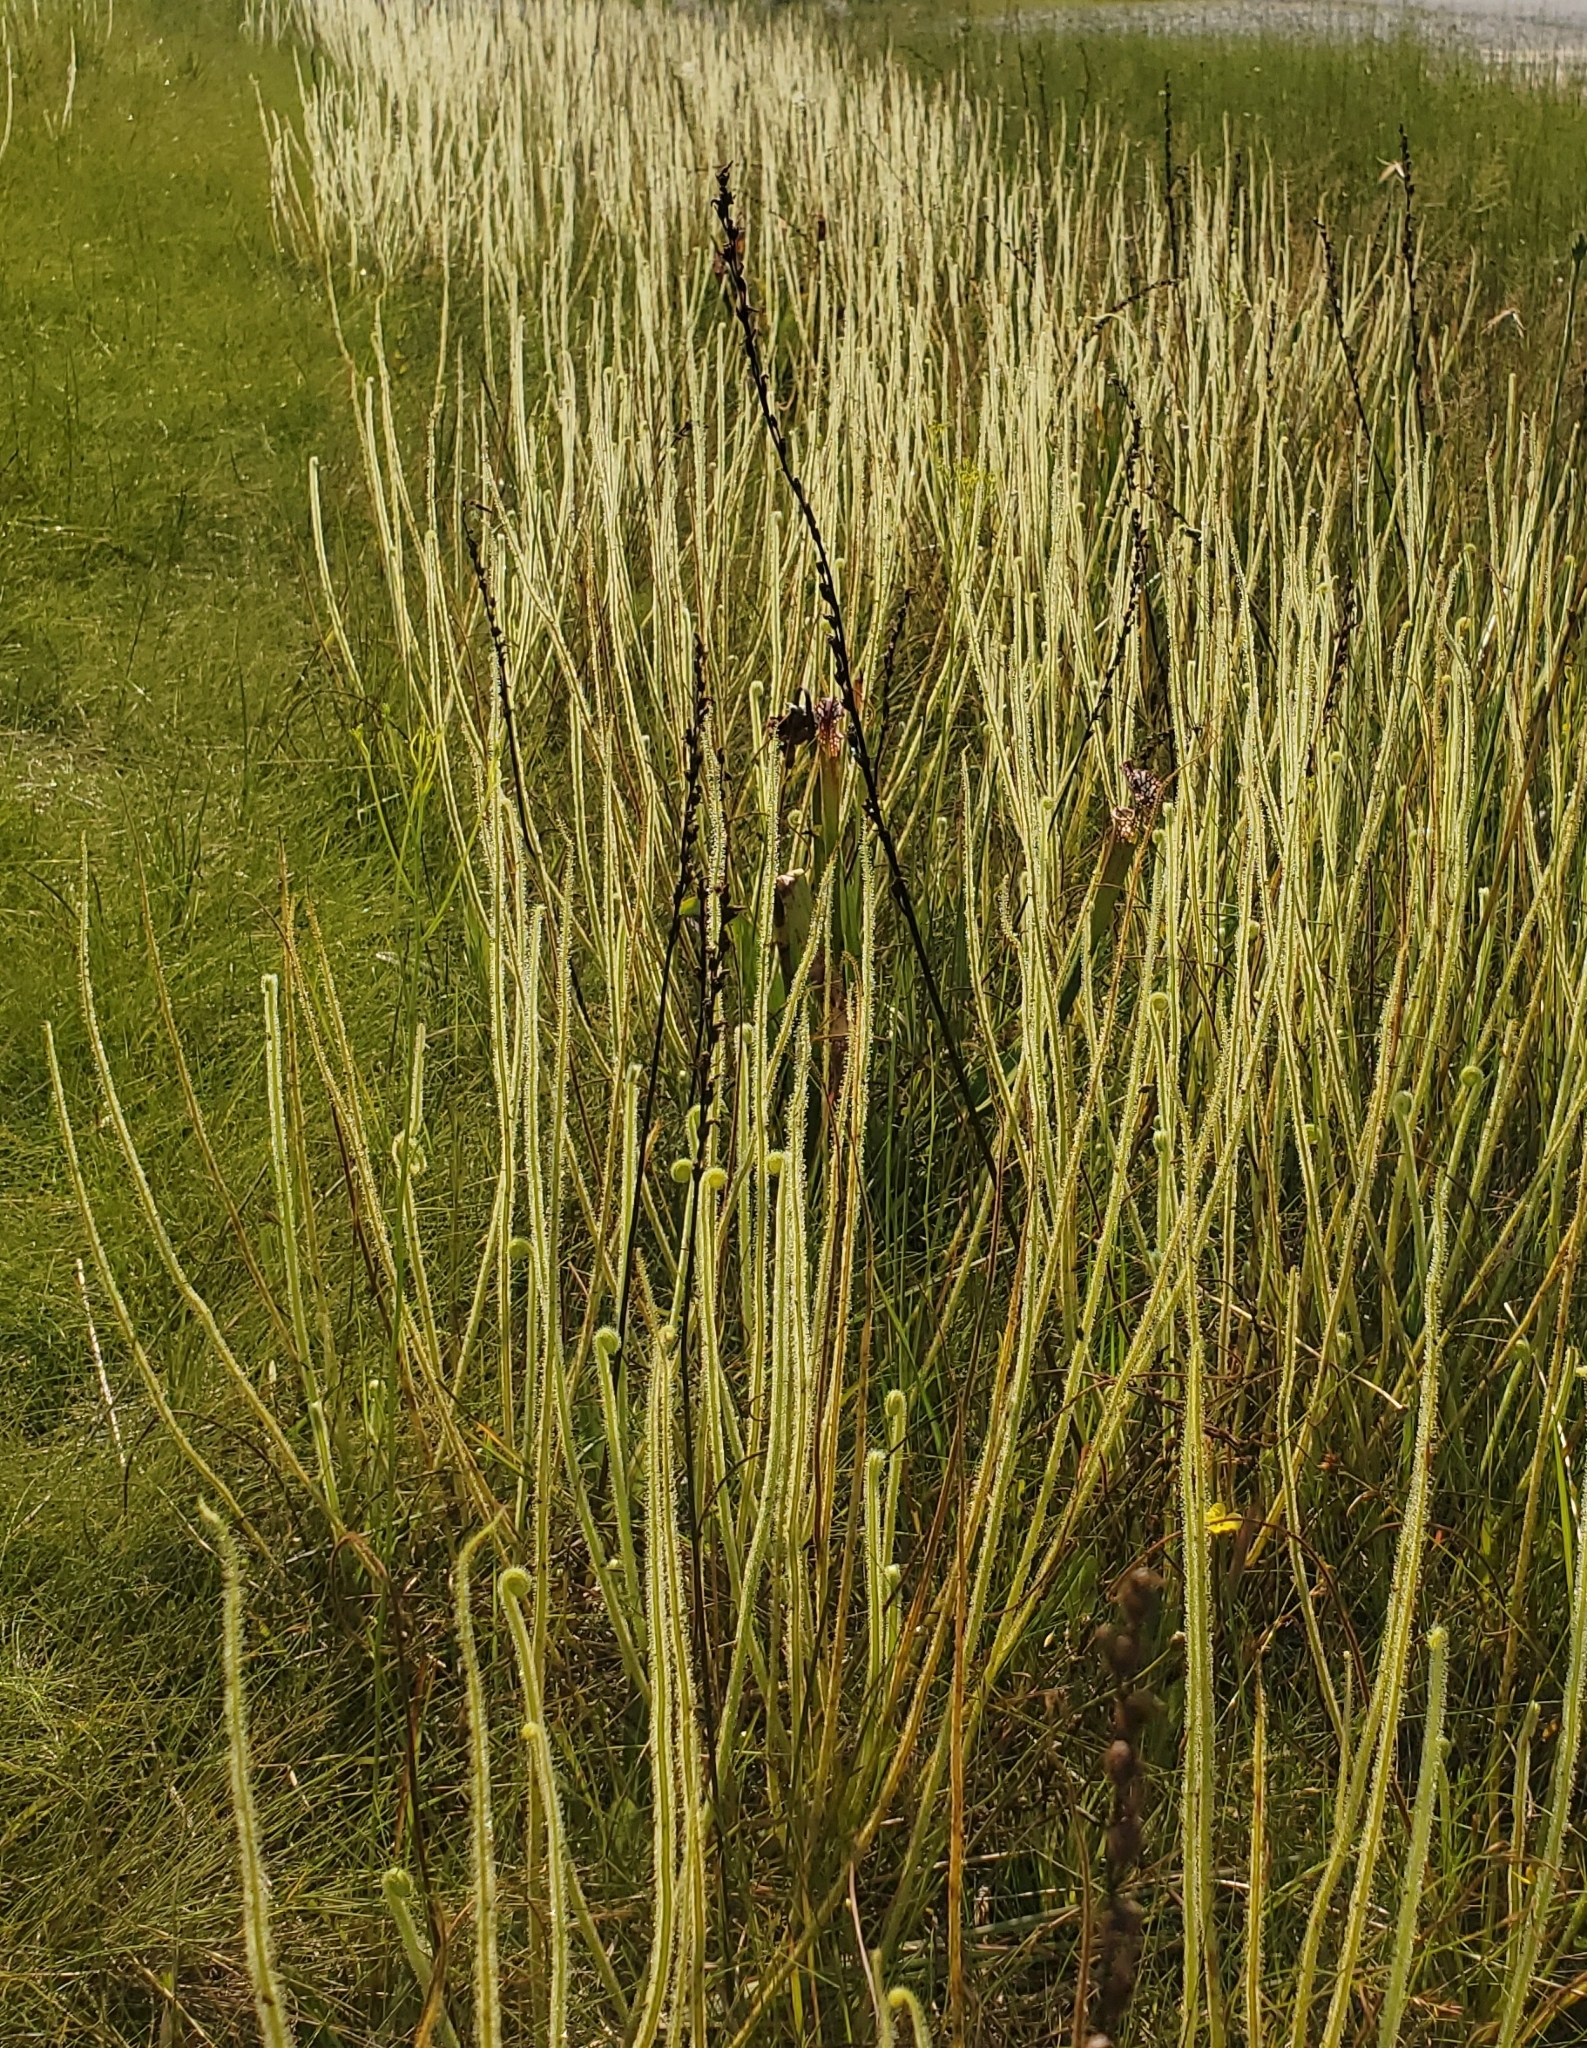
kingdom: Plantae
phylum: Tracheophyta
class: Magnoliopsida
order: Caryophyllales
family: Droseraceae
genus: Drosera
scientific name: Drosera filiformis
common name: Dew-thread
